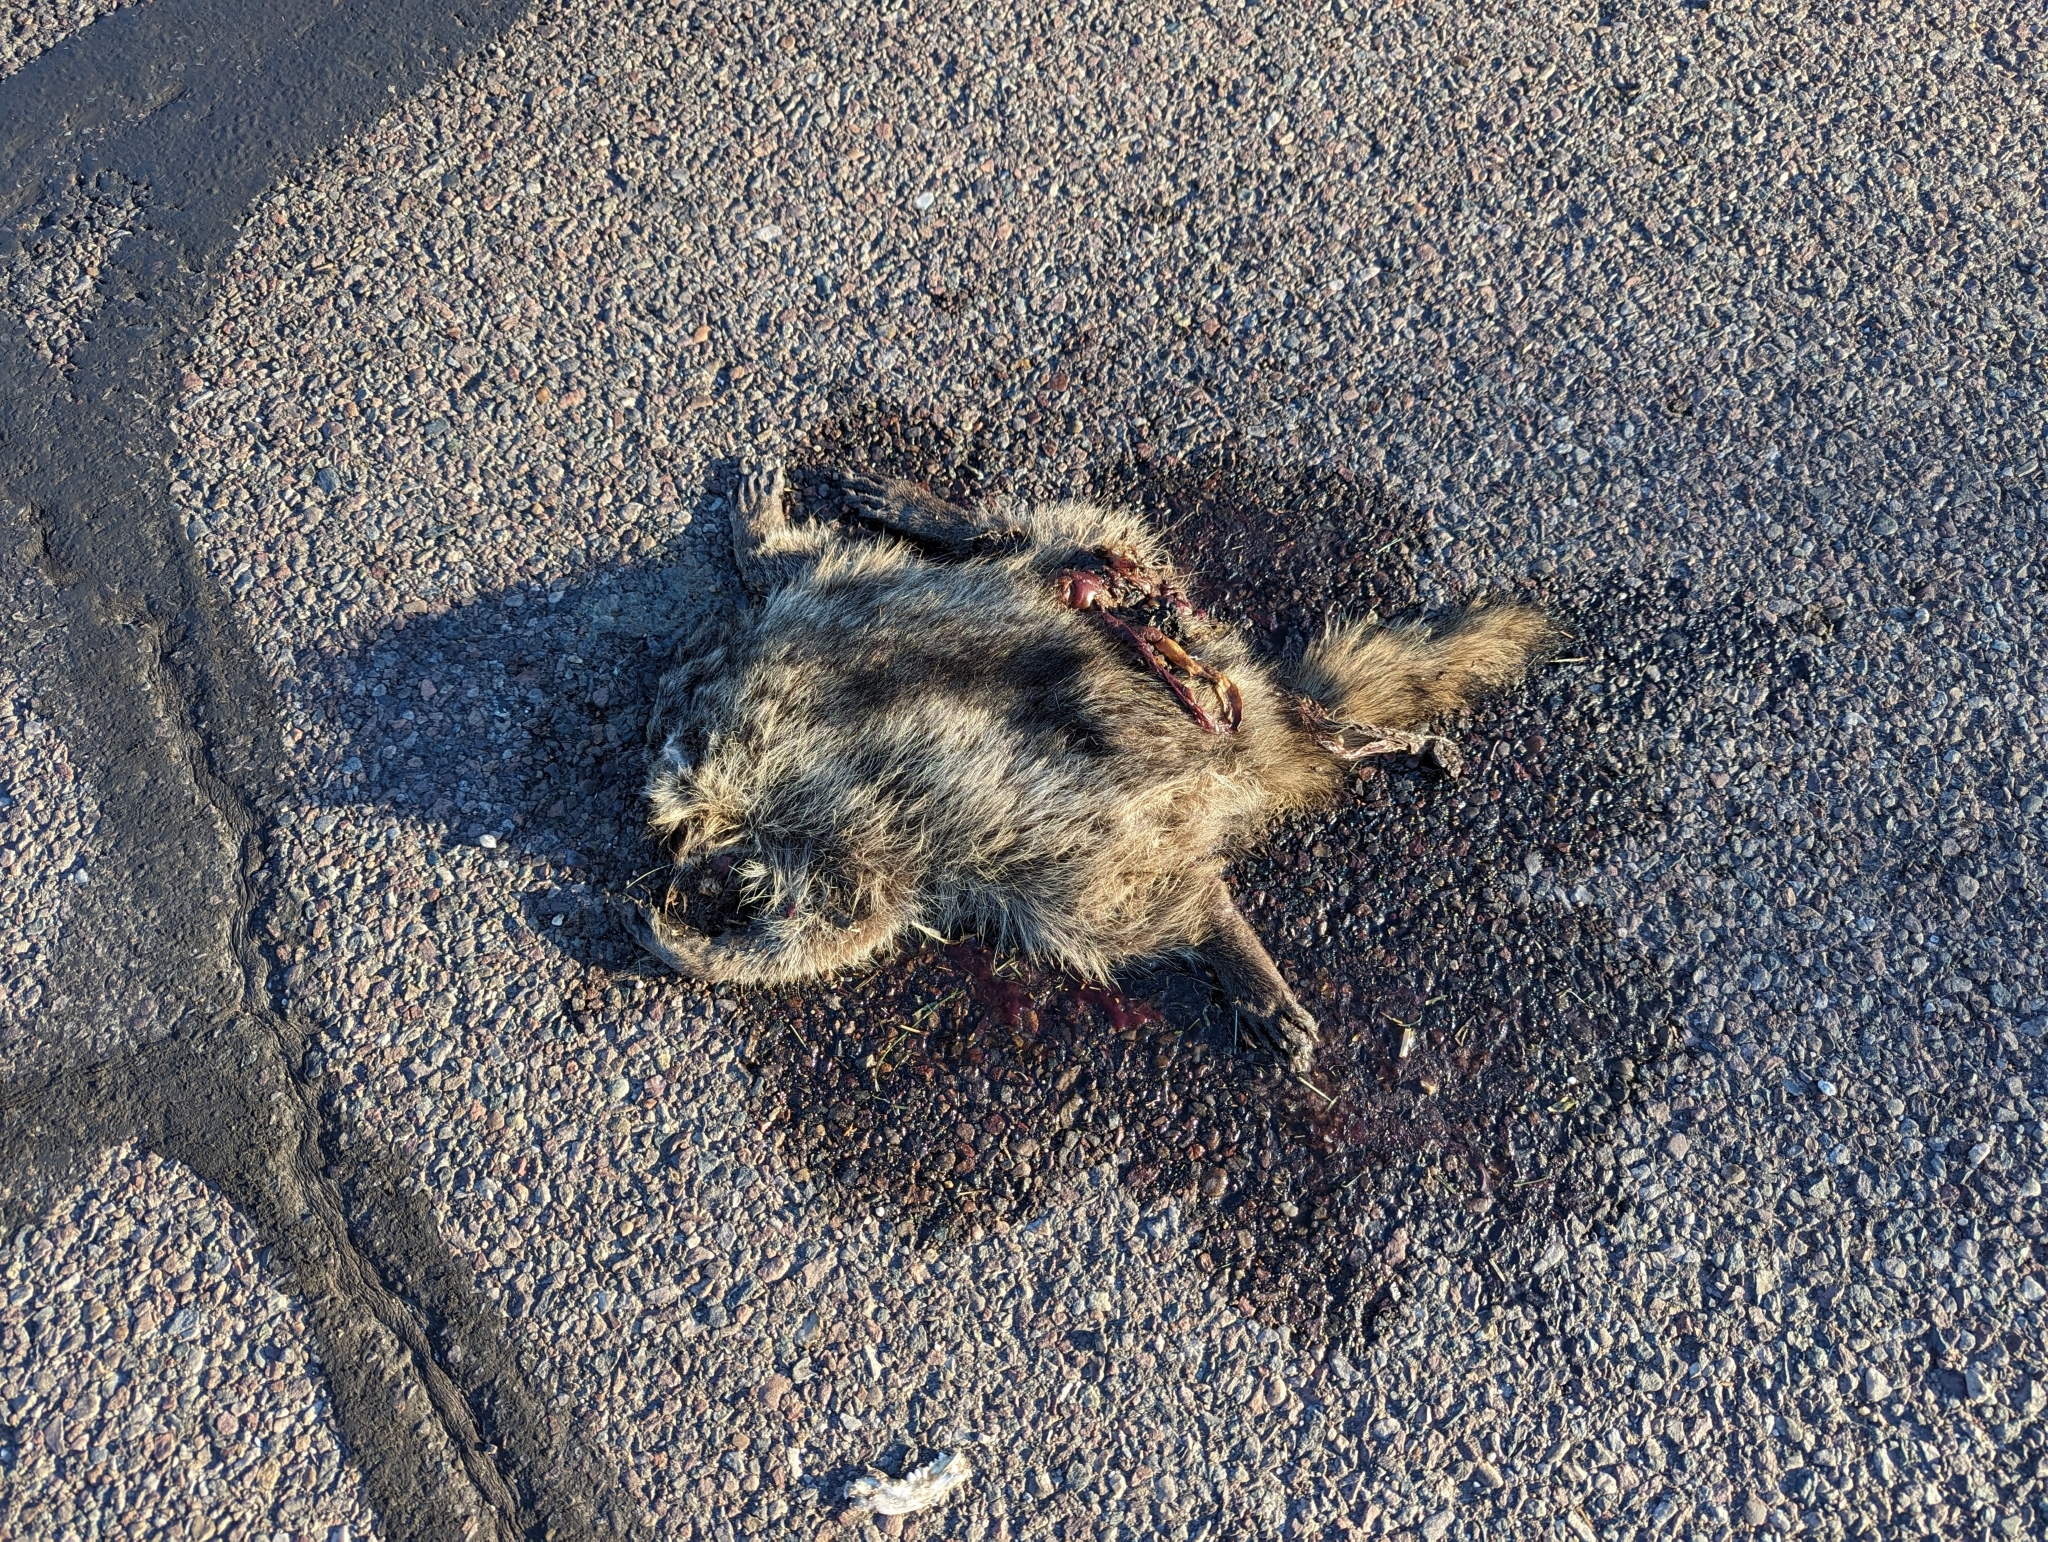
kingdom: Animalia
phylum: Chordata
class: Mammalia
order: Carnivora
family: Procyonidae
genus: Procyon
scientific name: Procyon lotor
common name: Raccoon
